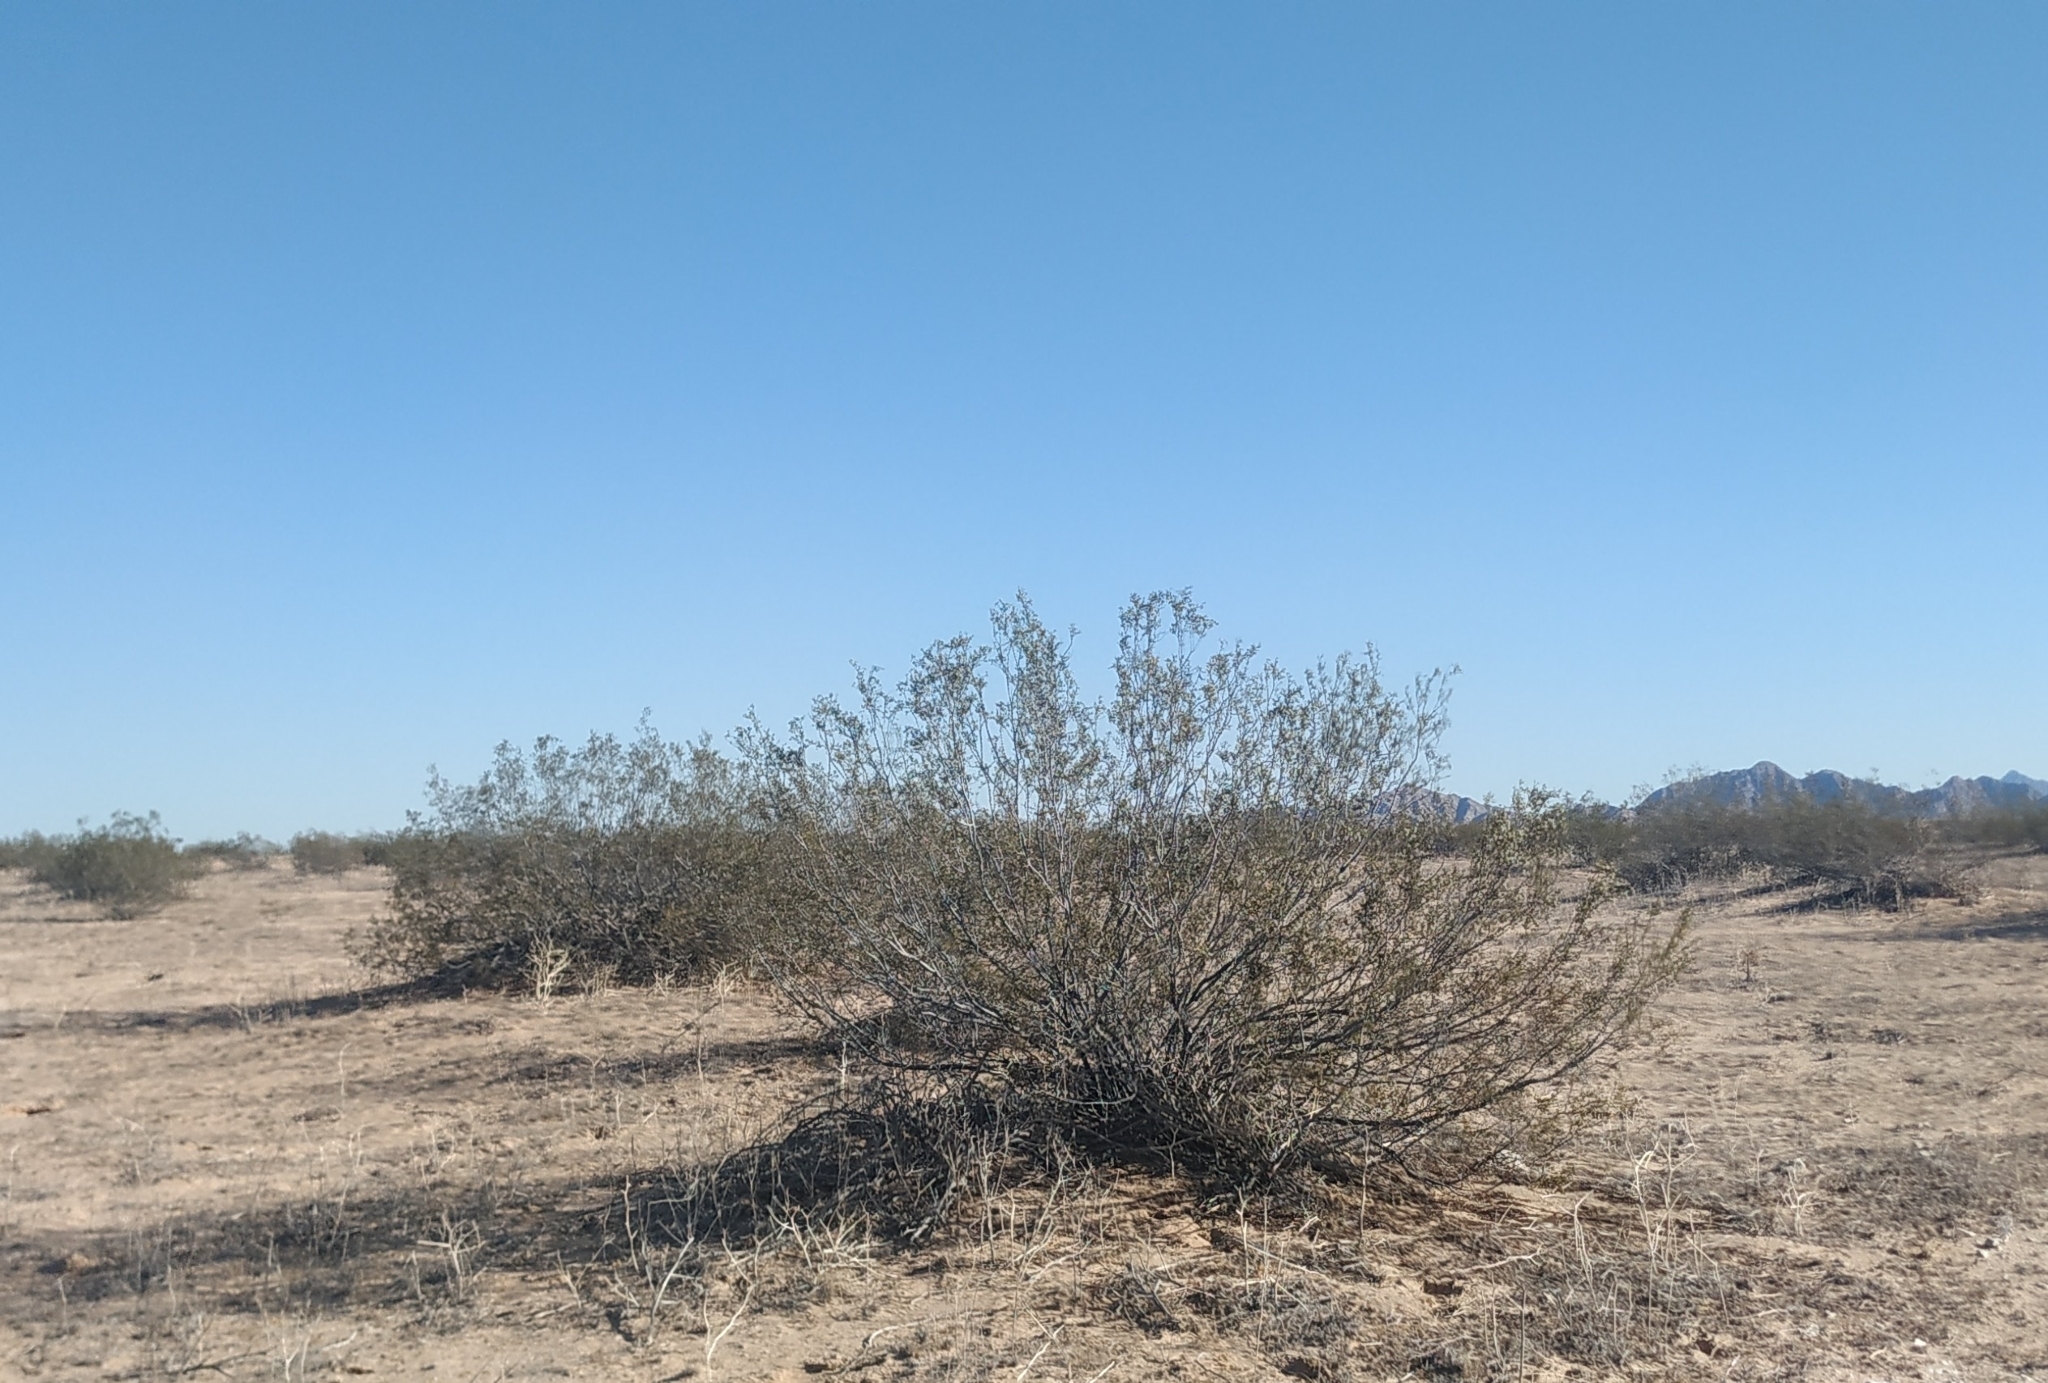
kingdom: Plantae
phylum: Tracheophyta
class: Magnoliopsida
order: Zygophyllales
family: Zygophyllaceae
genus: Larrea
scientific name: Larrea tridentata
